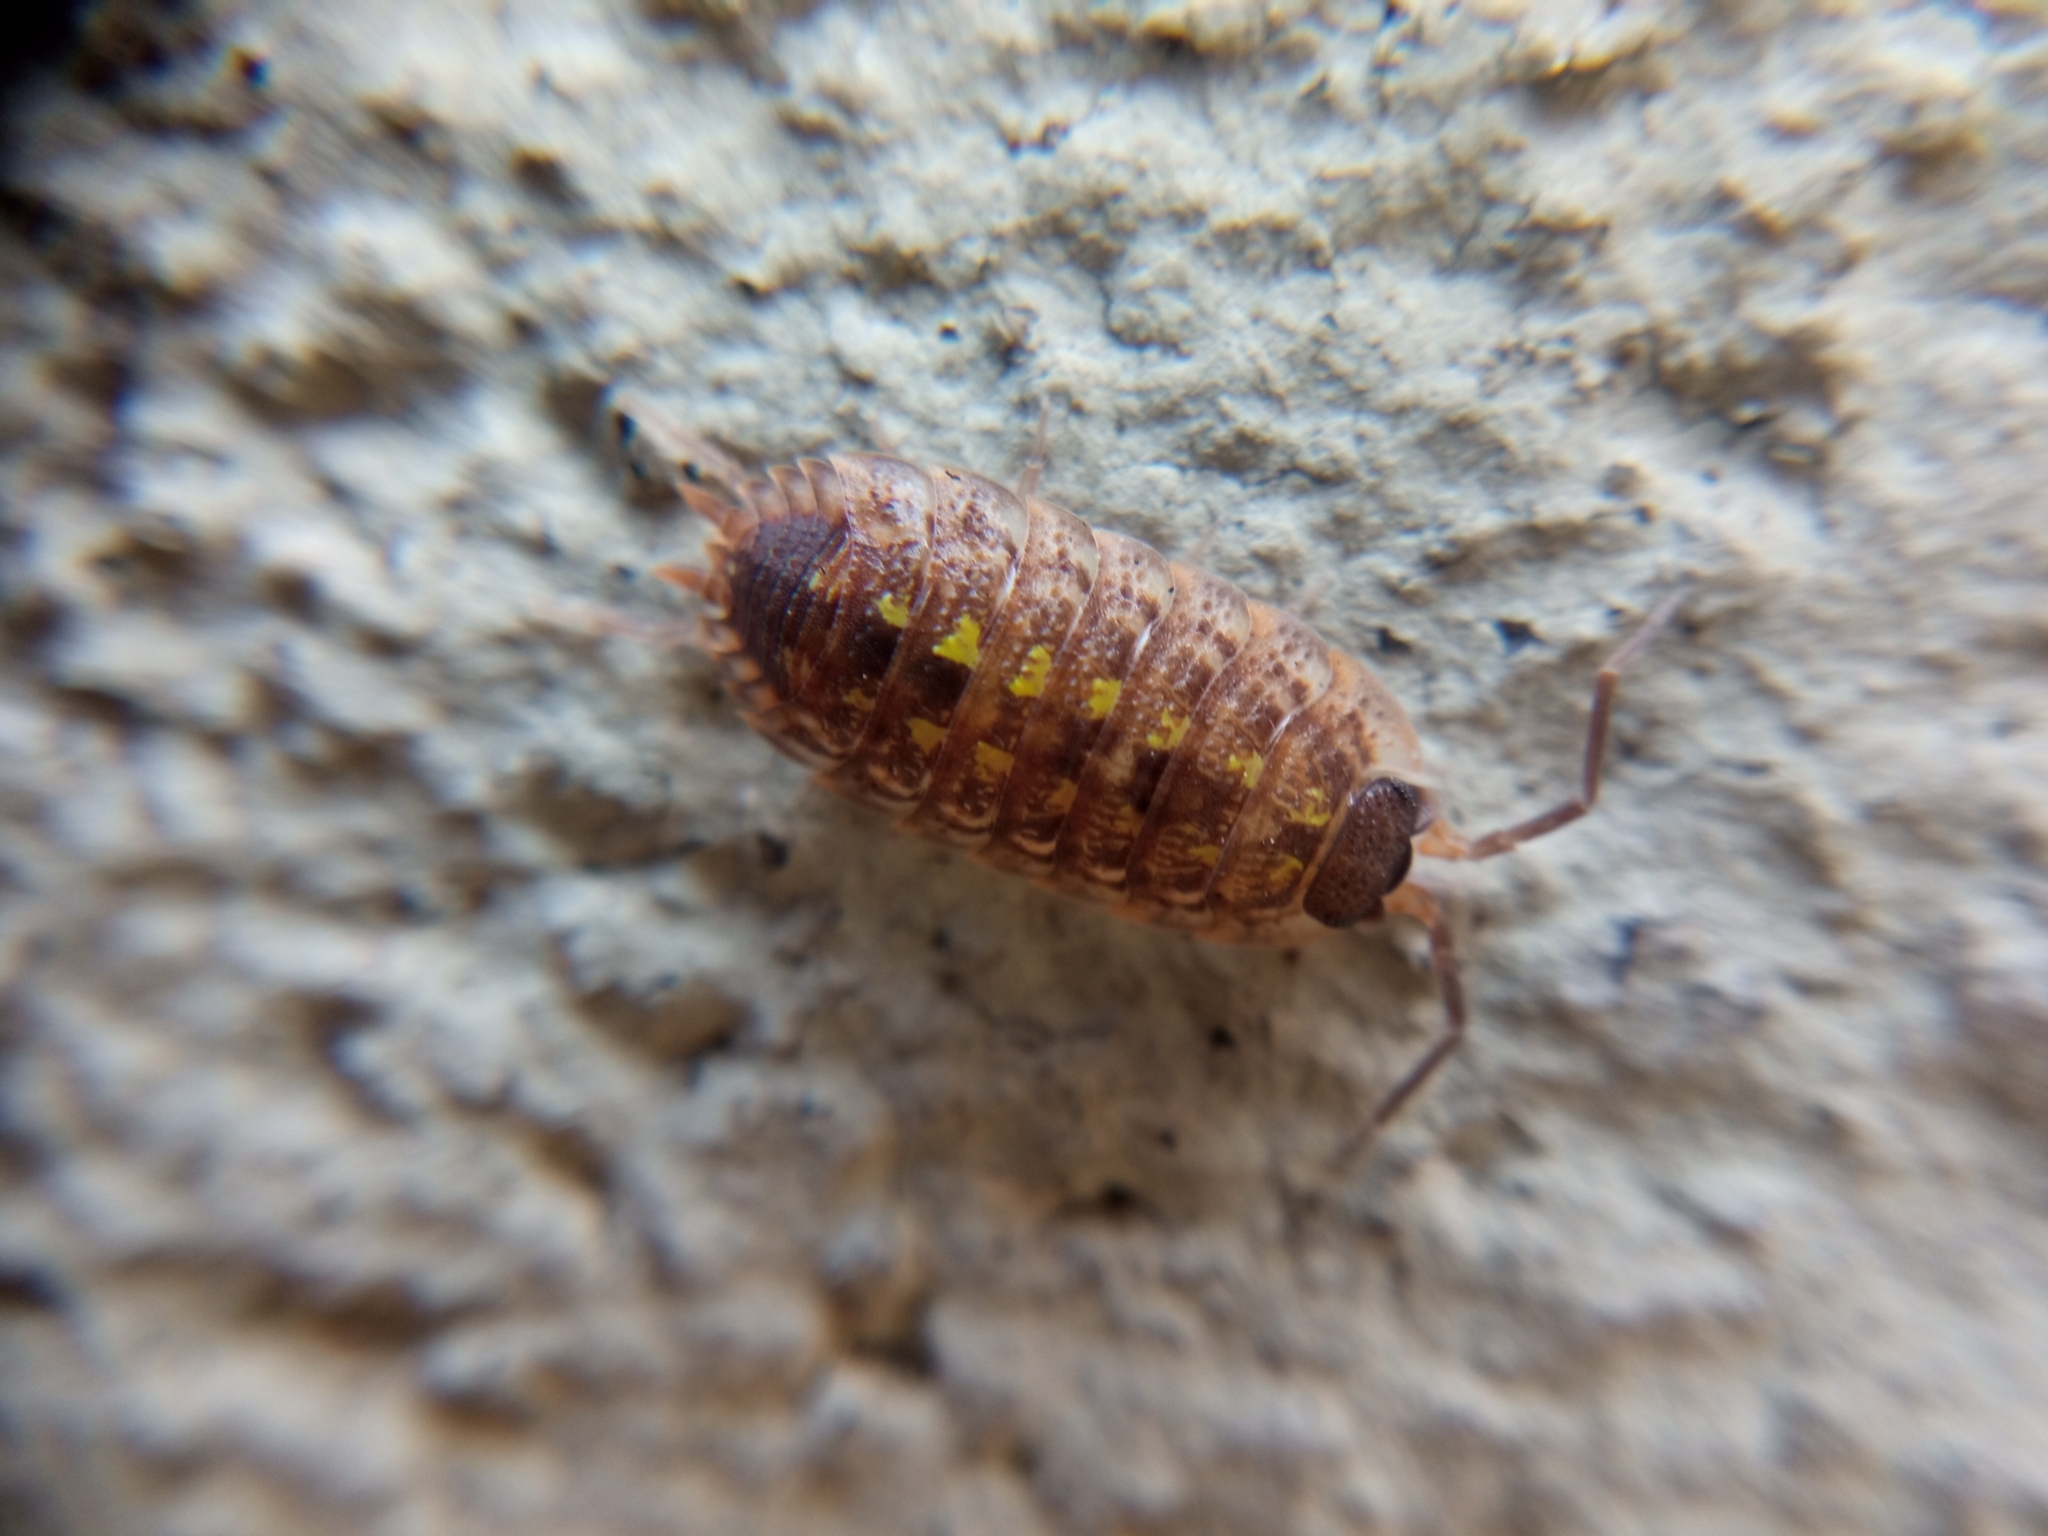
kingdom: Animalia
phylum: Arthropoda
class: Malacostraca
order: Isopoda
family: Porcellionidae
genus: Porcellio
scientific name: Porcellio spinicornis
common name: Painted woodlouse
